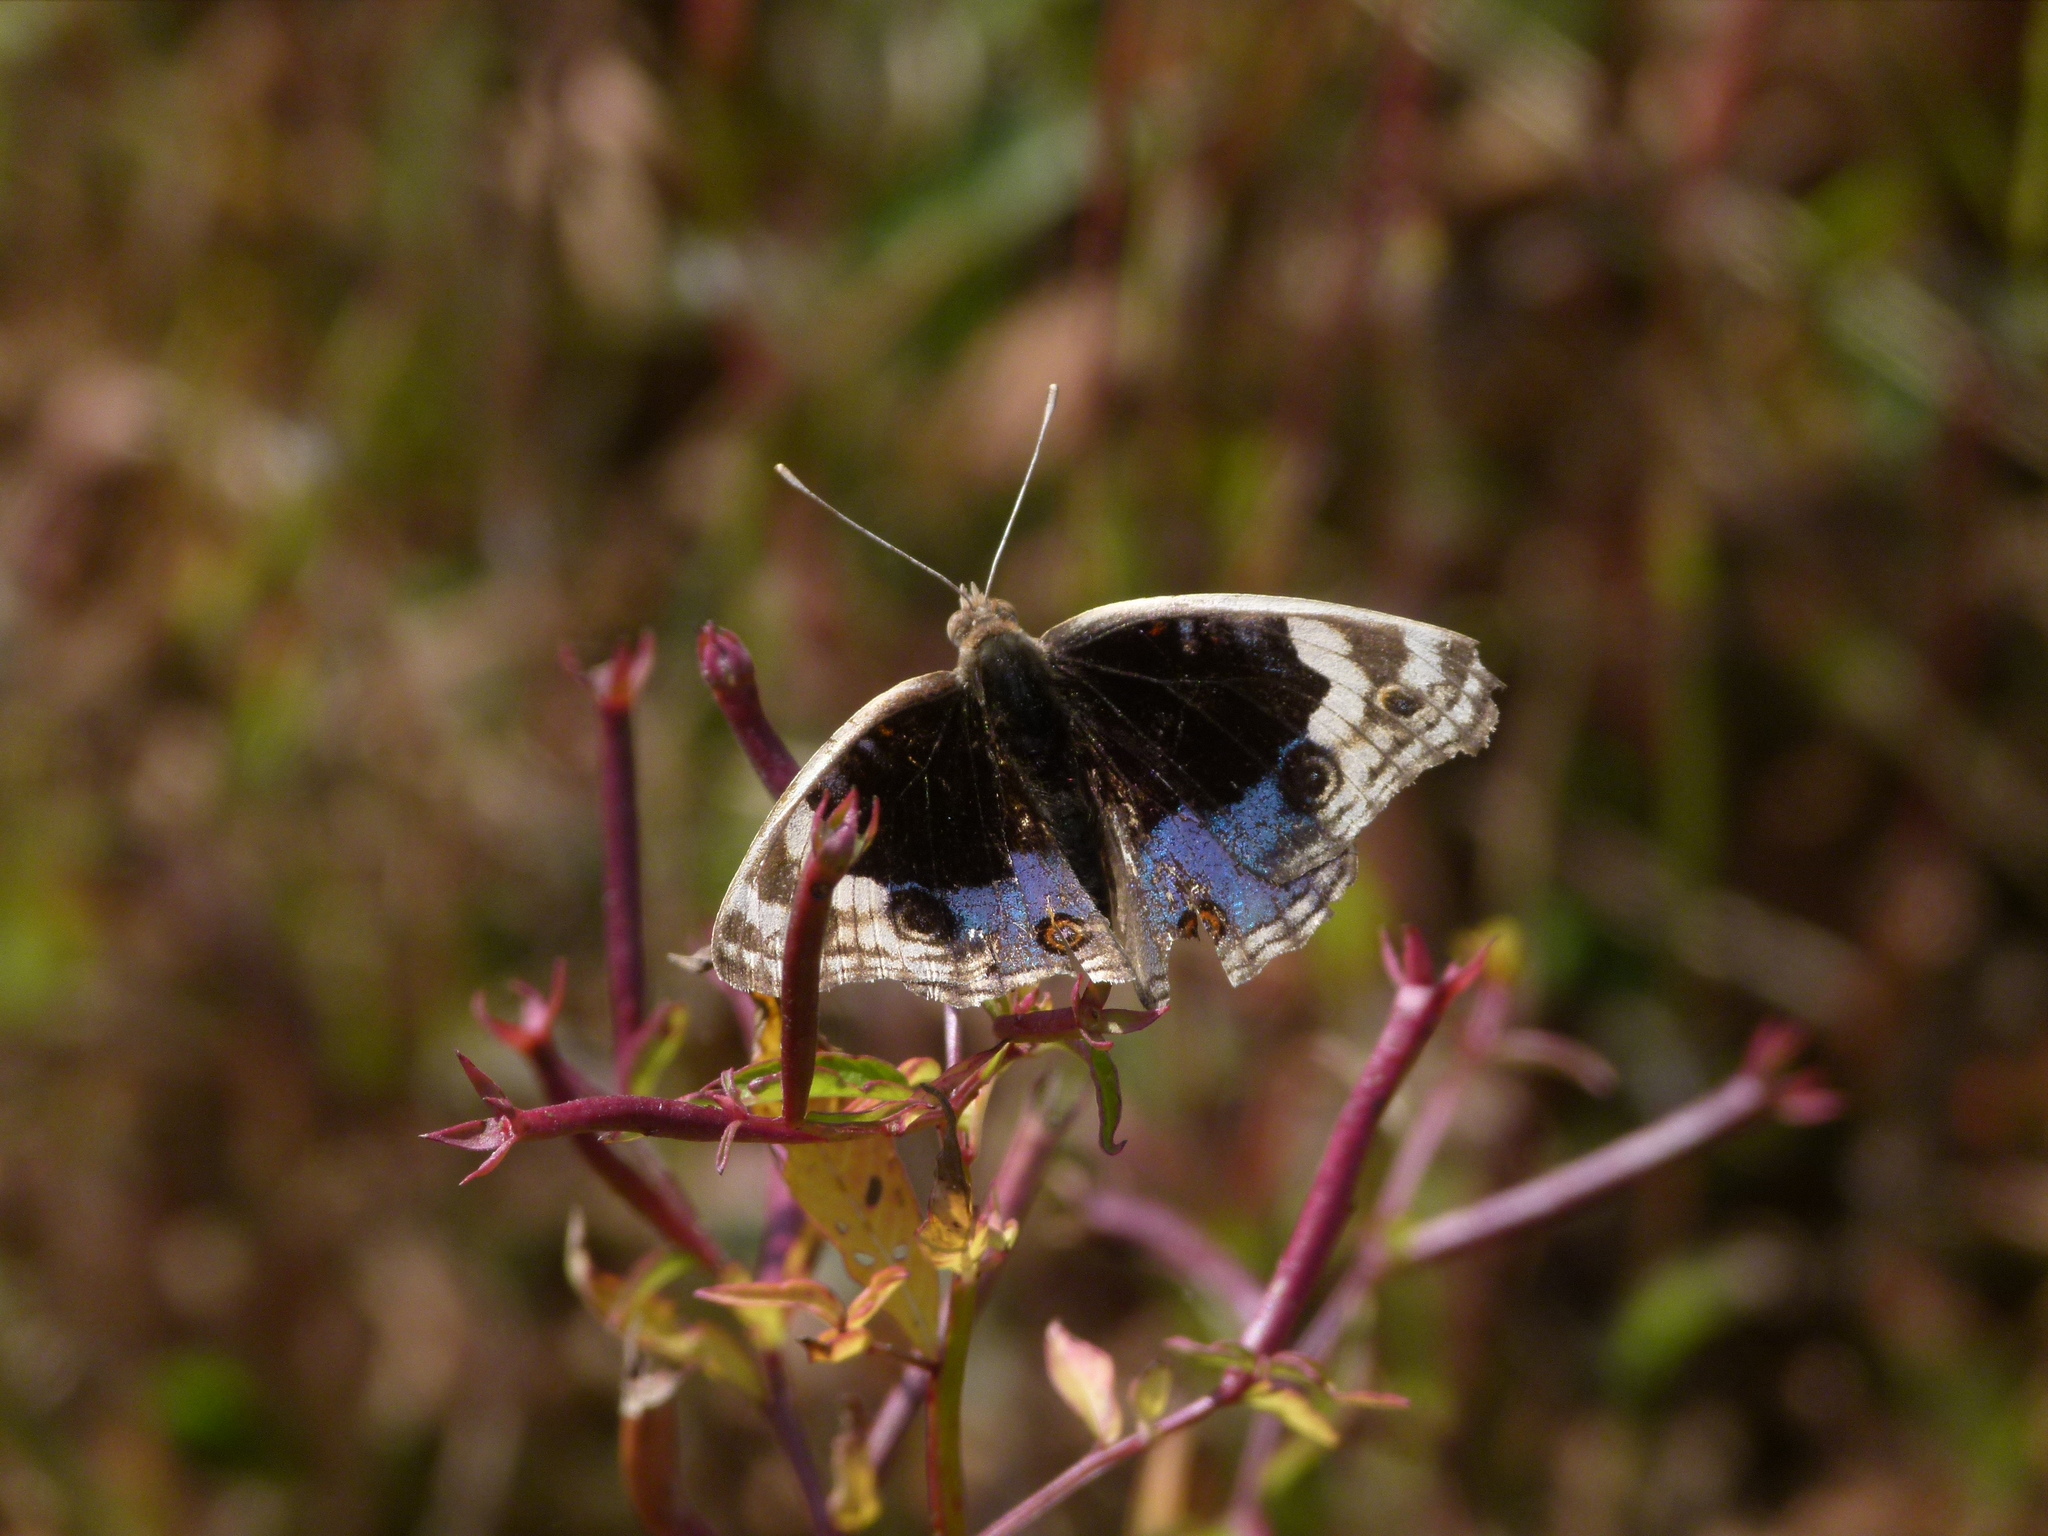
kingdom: Animalia
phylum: Arthropoda
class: Insecta
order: Lepidoptera
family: Nymphalidae
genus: Junonia
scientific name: Junonia orithya
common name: Blue pansy
